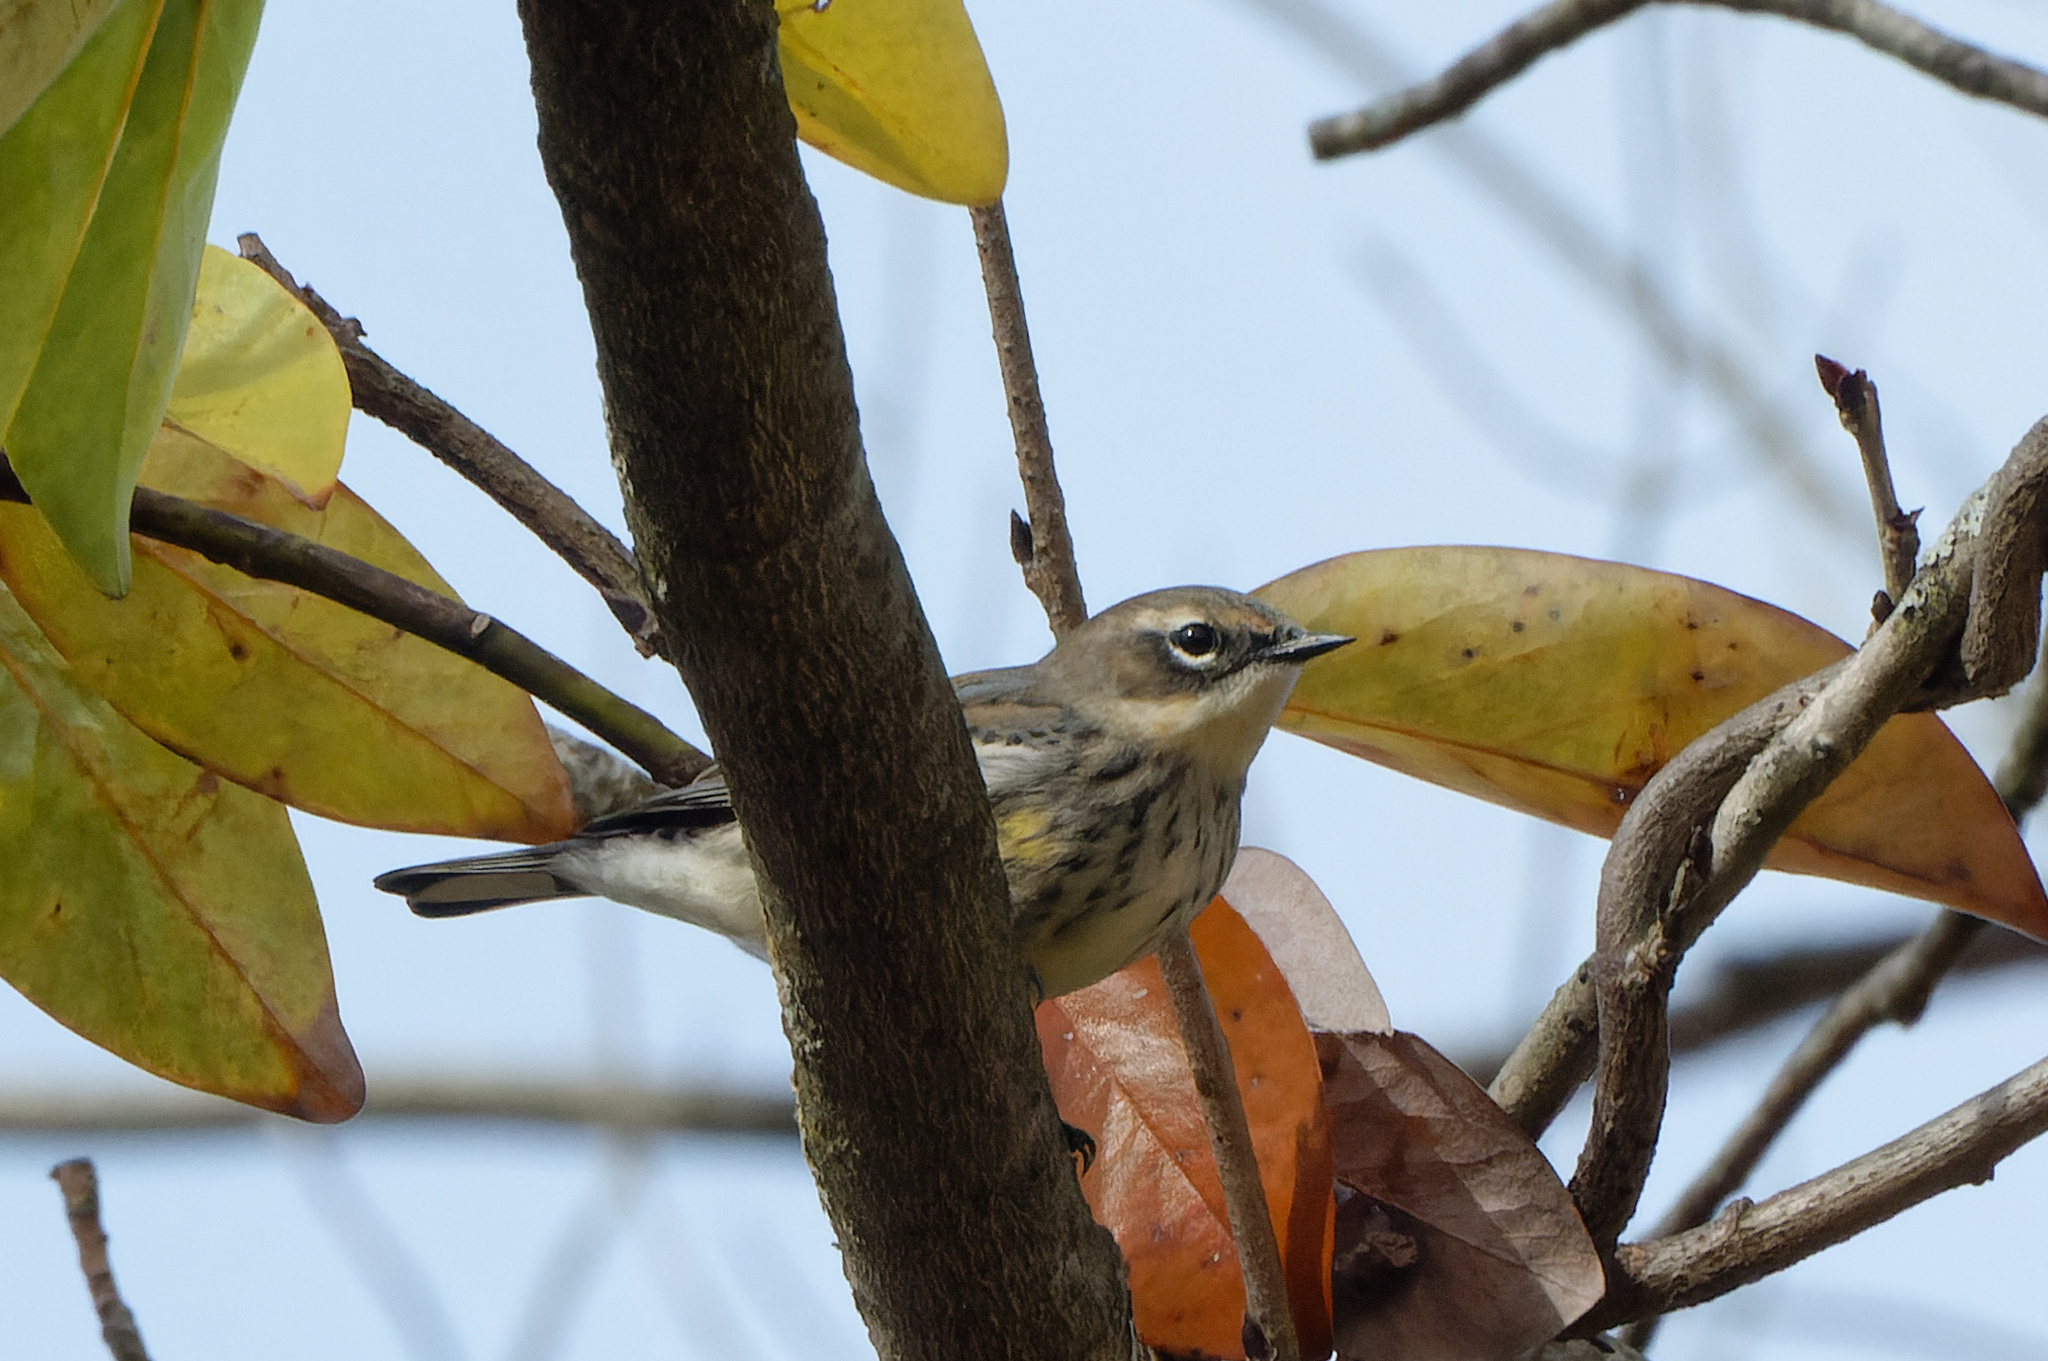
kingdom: Animalia
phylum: Chordata
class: Aves
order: Passeriformes
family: Parulidae
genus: Setophaga
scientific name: Setophaga coronata
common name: Myrtle warbler
